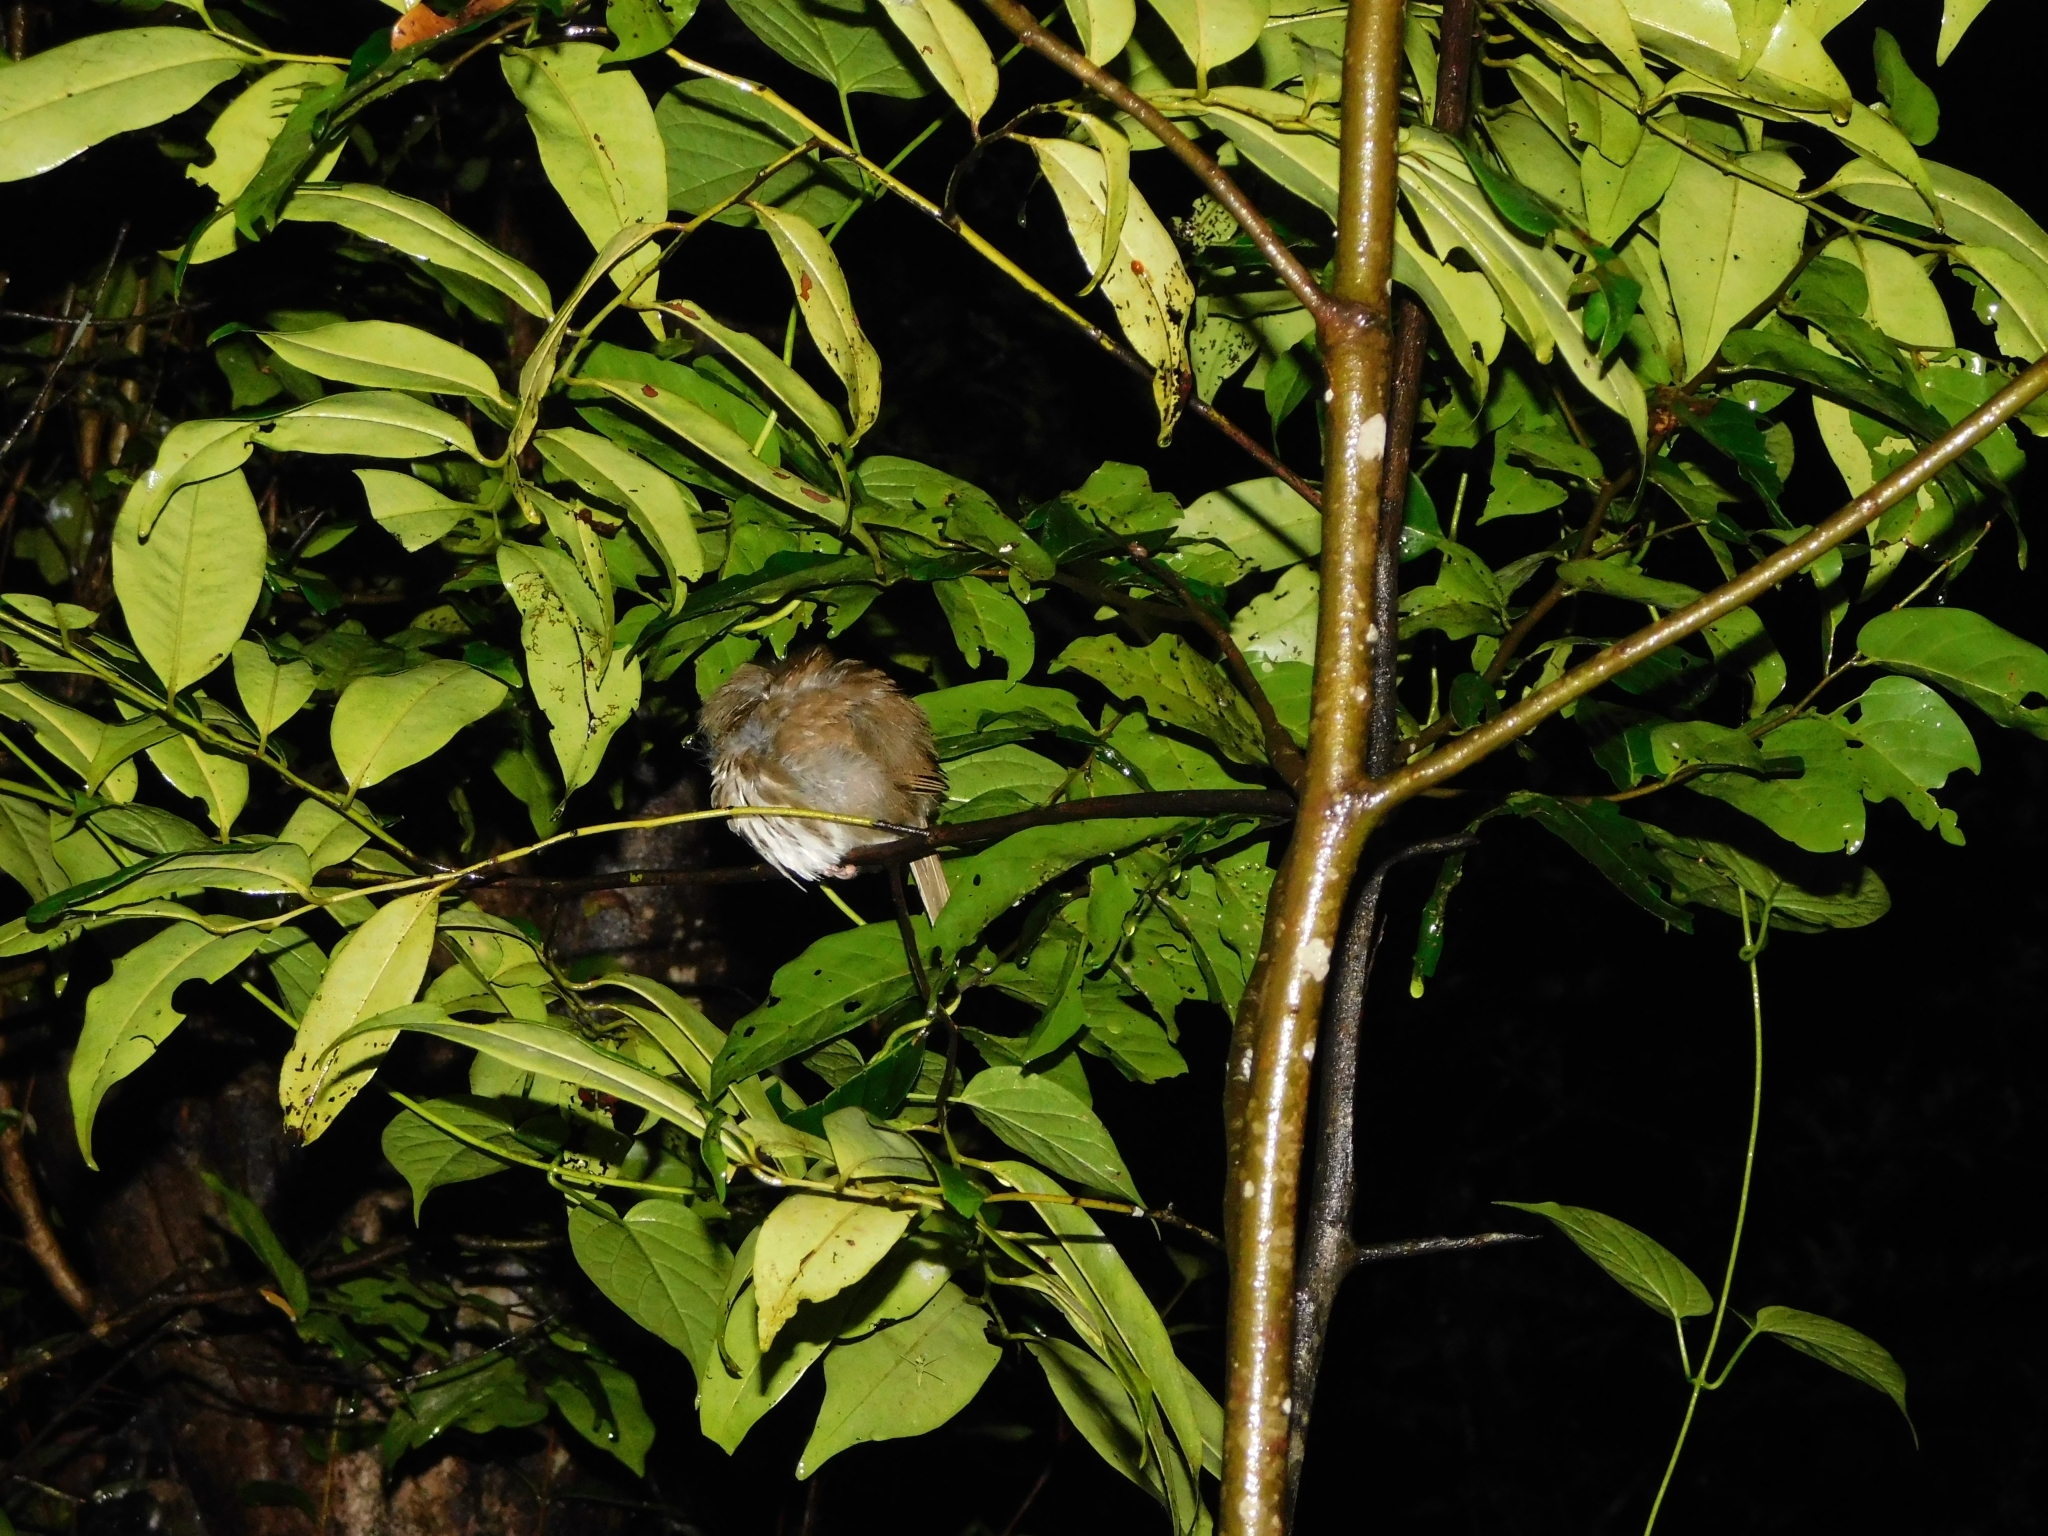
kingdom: Animalia
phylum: Chordata
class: Aves
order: Passeriformes
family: Pellorneidae
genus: Pellorneum
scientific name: Pellorneum ruficeps
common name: Puff-throated babbler
